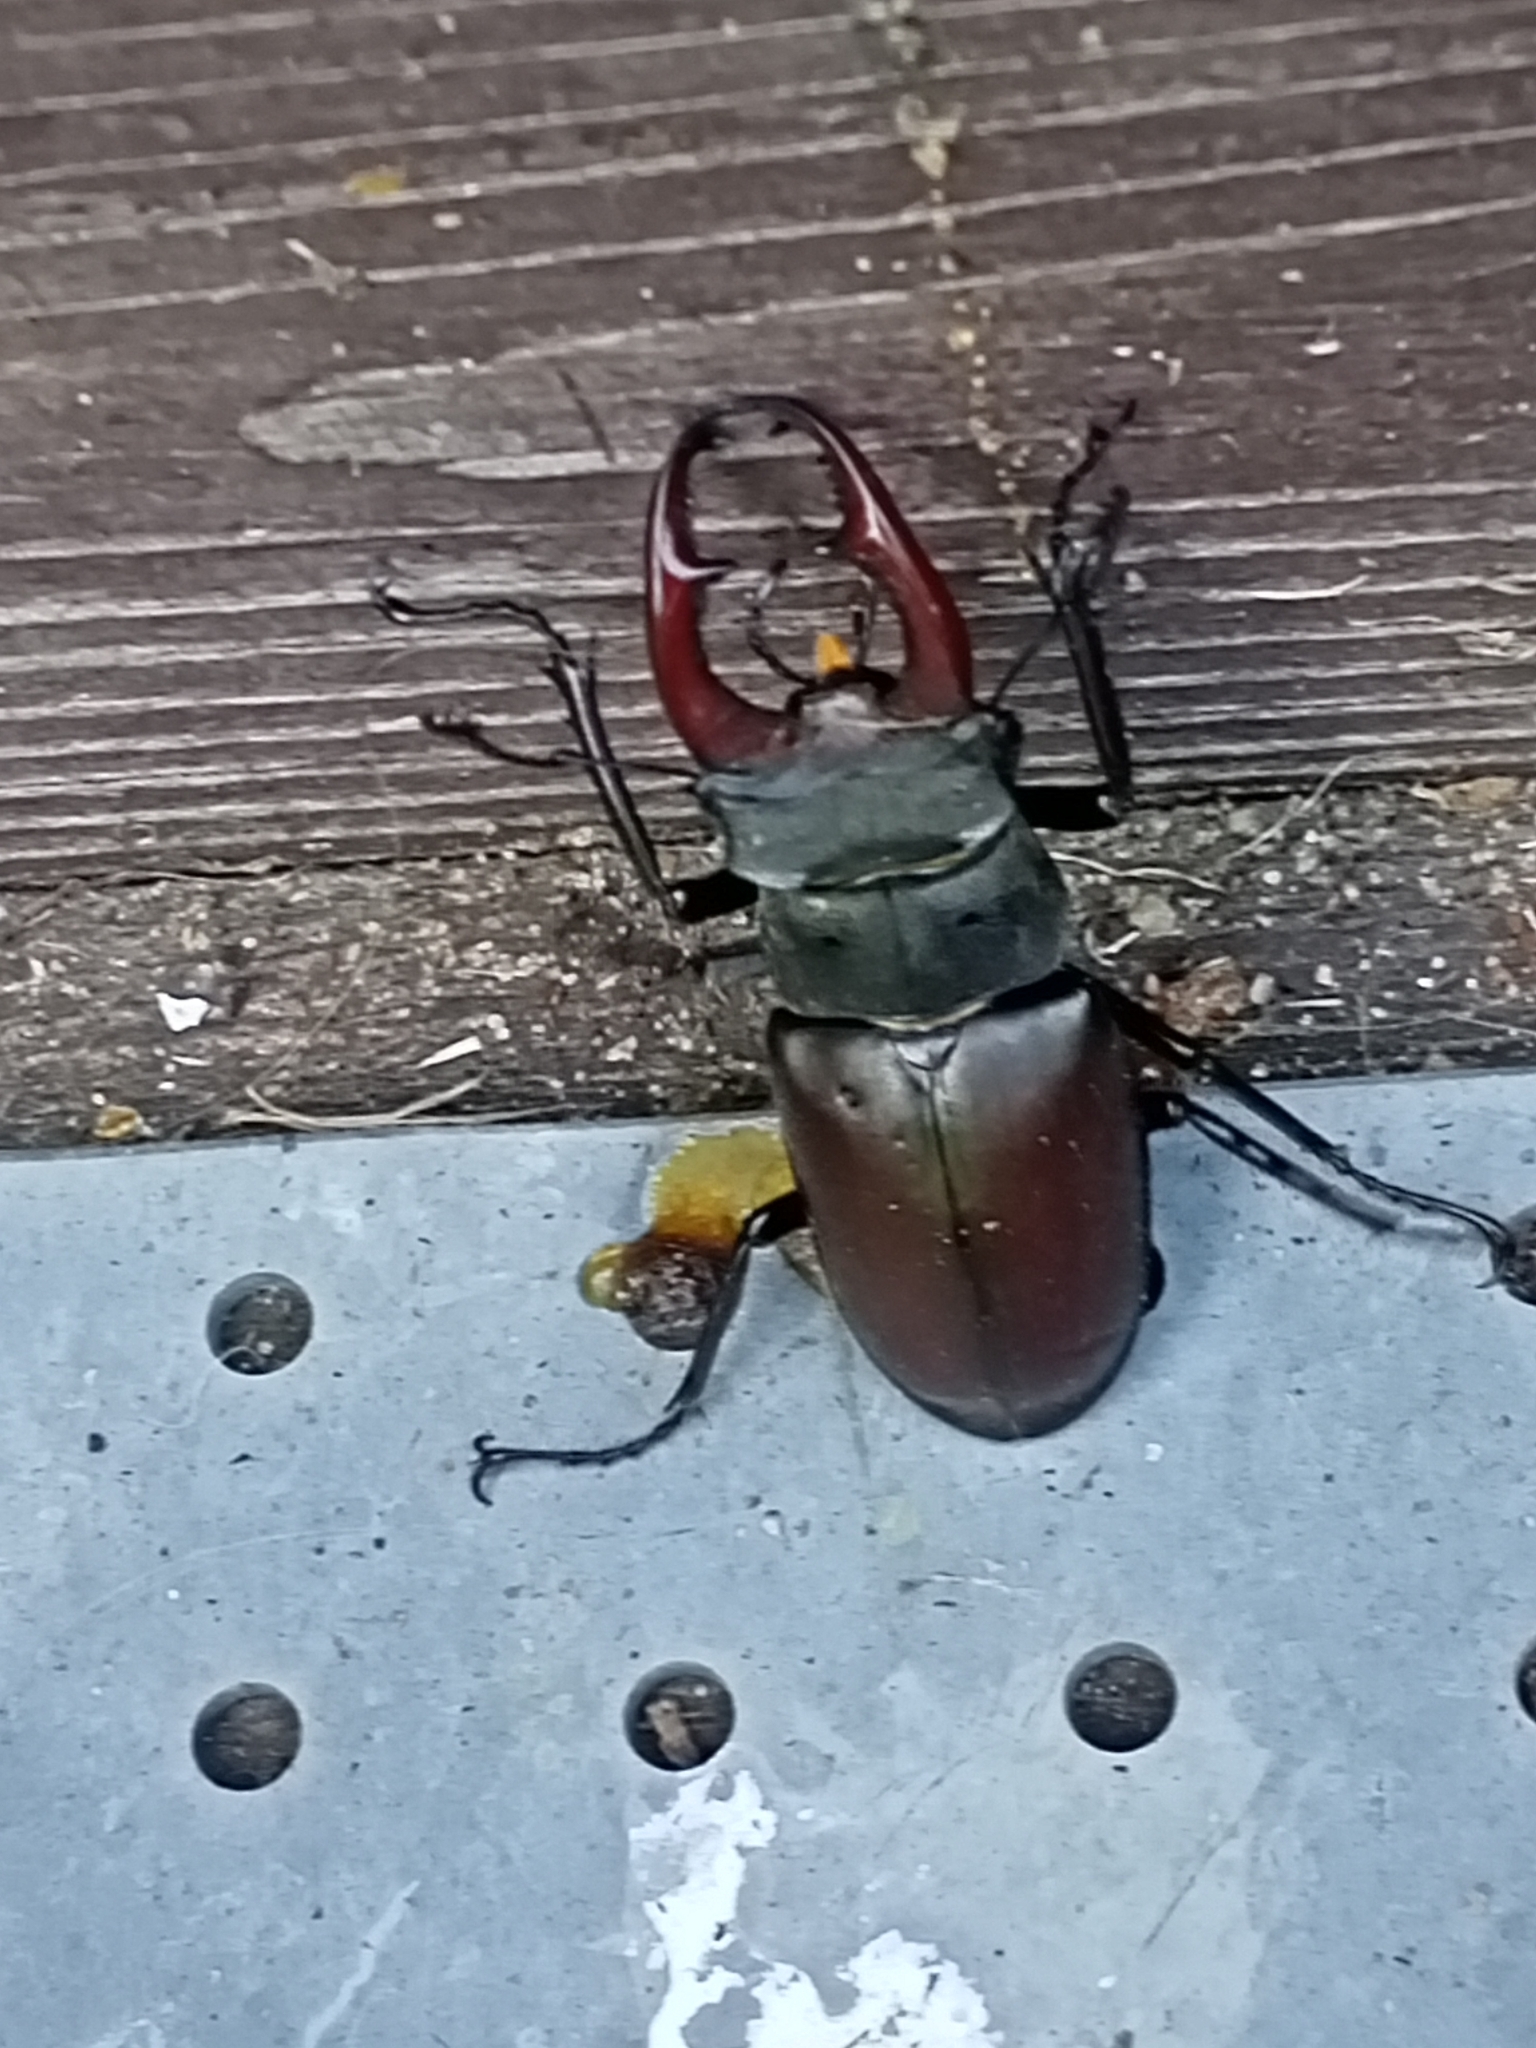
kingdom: Animalia
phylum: Arthropoda
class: Insecta
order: Coleoptera
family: Lucanidae
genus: Lucanus
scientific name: Lucanus cervus
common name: Stag beetle
